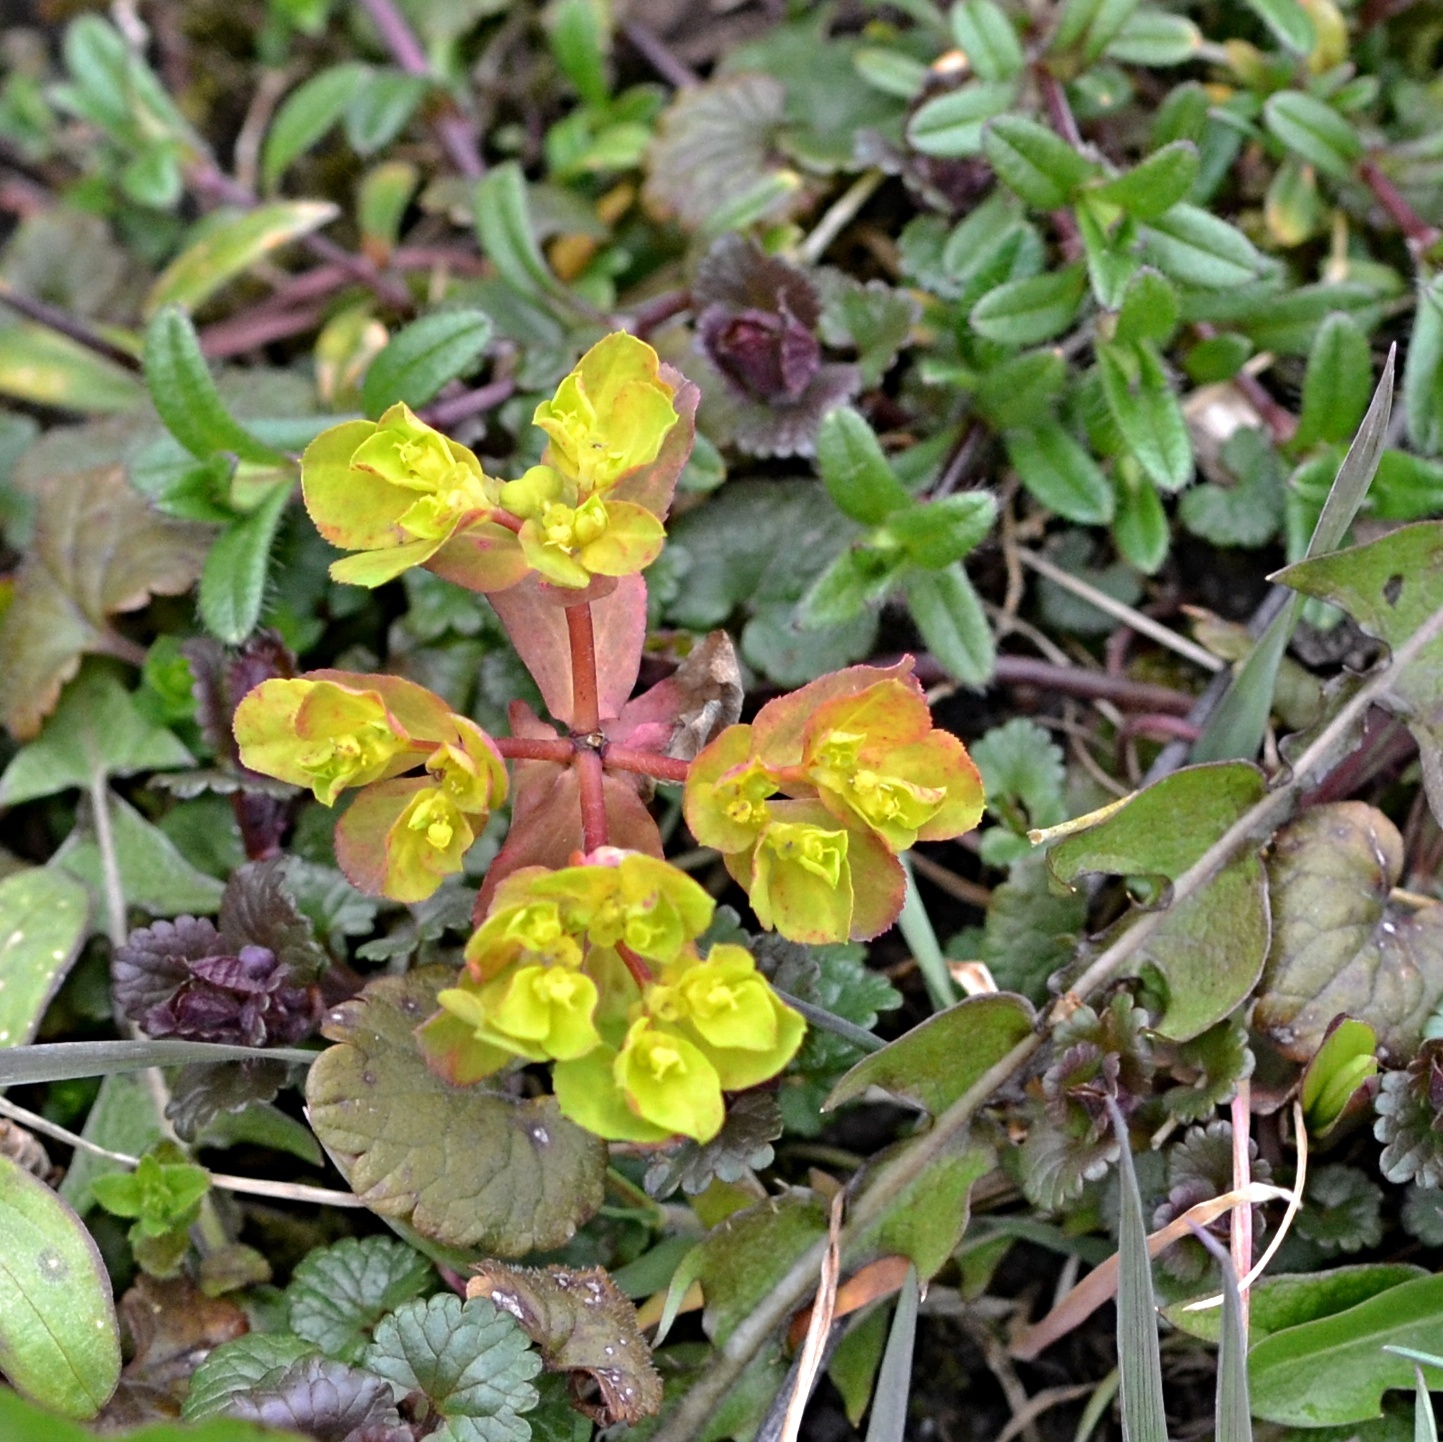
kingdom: Plantae
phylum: Tracheophyta
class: Magnoliopsida
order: Malpighiales
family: Euphorbiaceae
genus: Euphorbia
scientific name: Euphorbia helioscopia
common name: Sun spurge
